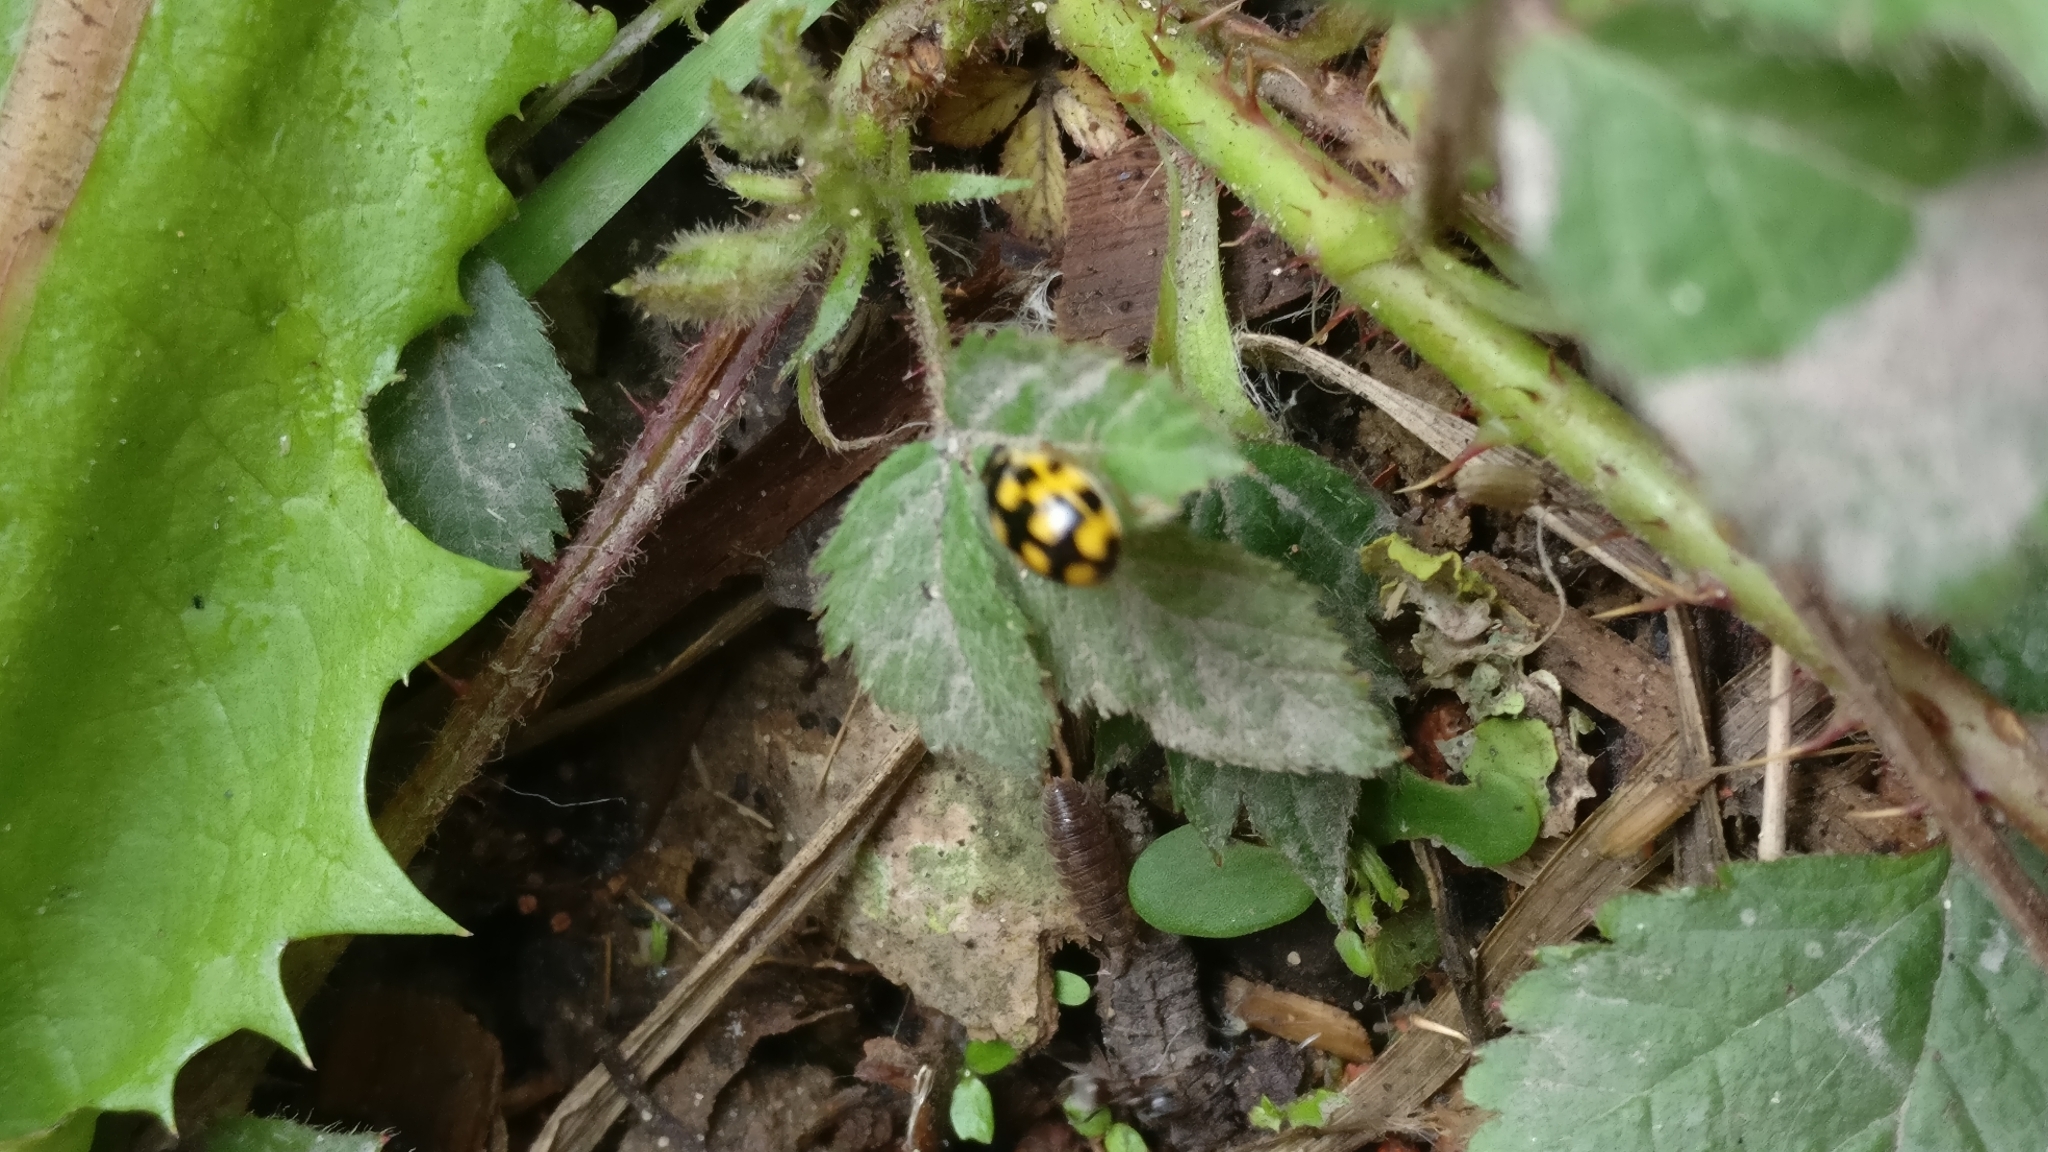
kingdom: Animalia
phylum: Arthropoda
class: Insecta
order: Coleoptera
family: Coccinellidae
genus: Propylaea
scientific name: Propylaea quatuordecimpunctata
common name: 14-spotted ladybird beetle
